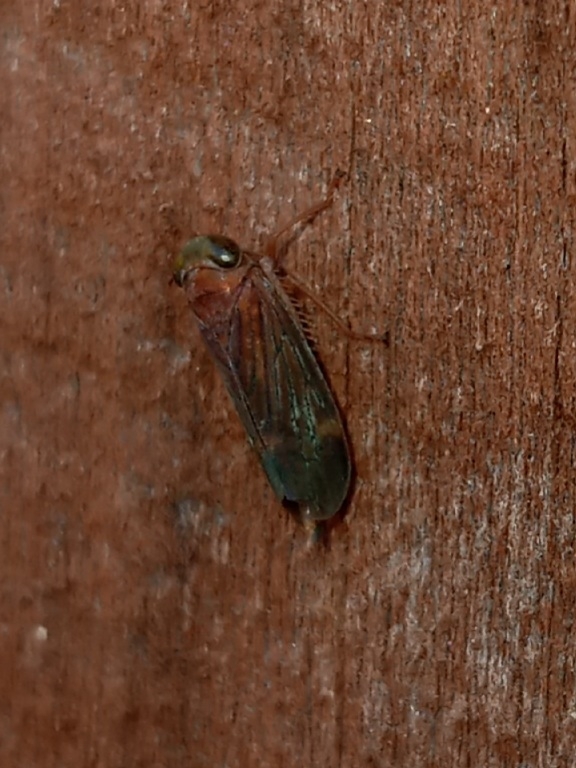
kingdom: Animalia
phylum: Arthropoda
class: Insecta
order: Hemiptera
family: Cicadellidae
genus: Jikradia
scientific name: Jikradia olitoria
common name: Coppery leafhopper
